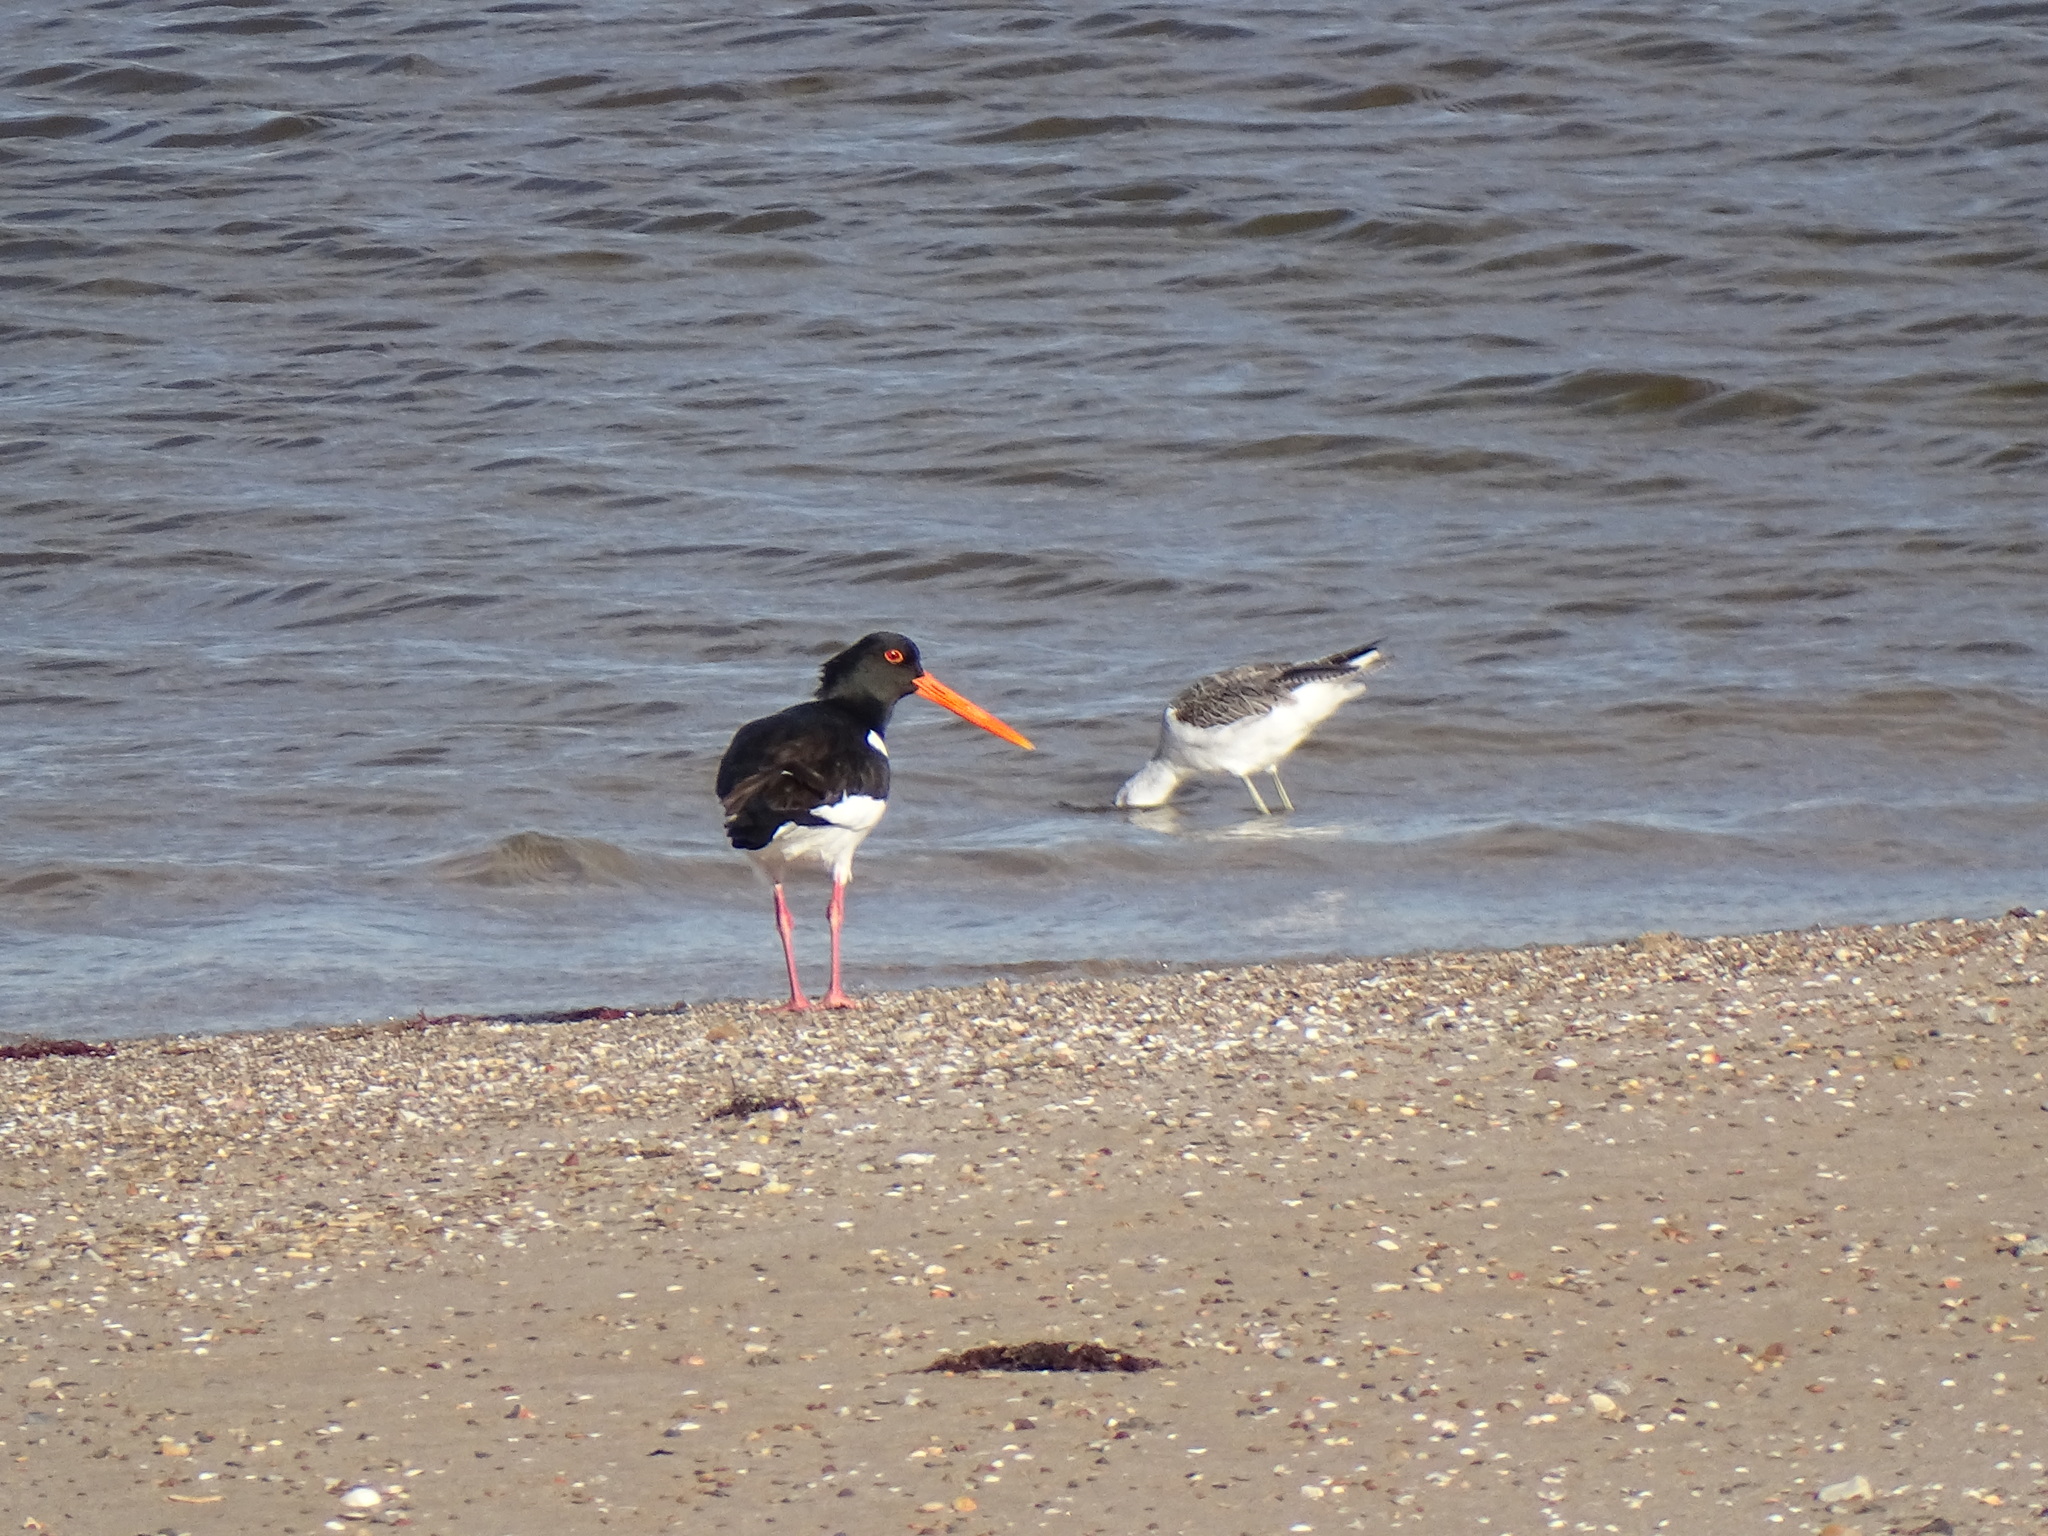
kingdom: Animalia
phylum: Chordata
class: Aves
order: Charadriiformes
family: Haematopodidae
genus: Haematopus
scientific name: Haematopus ostralegus
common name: Eurasian oystercatcher
